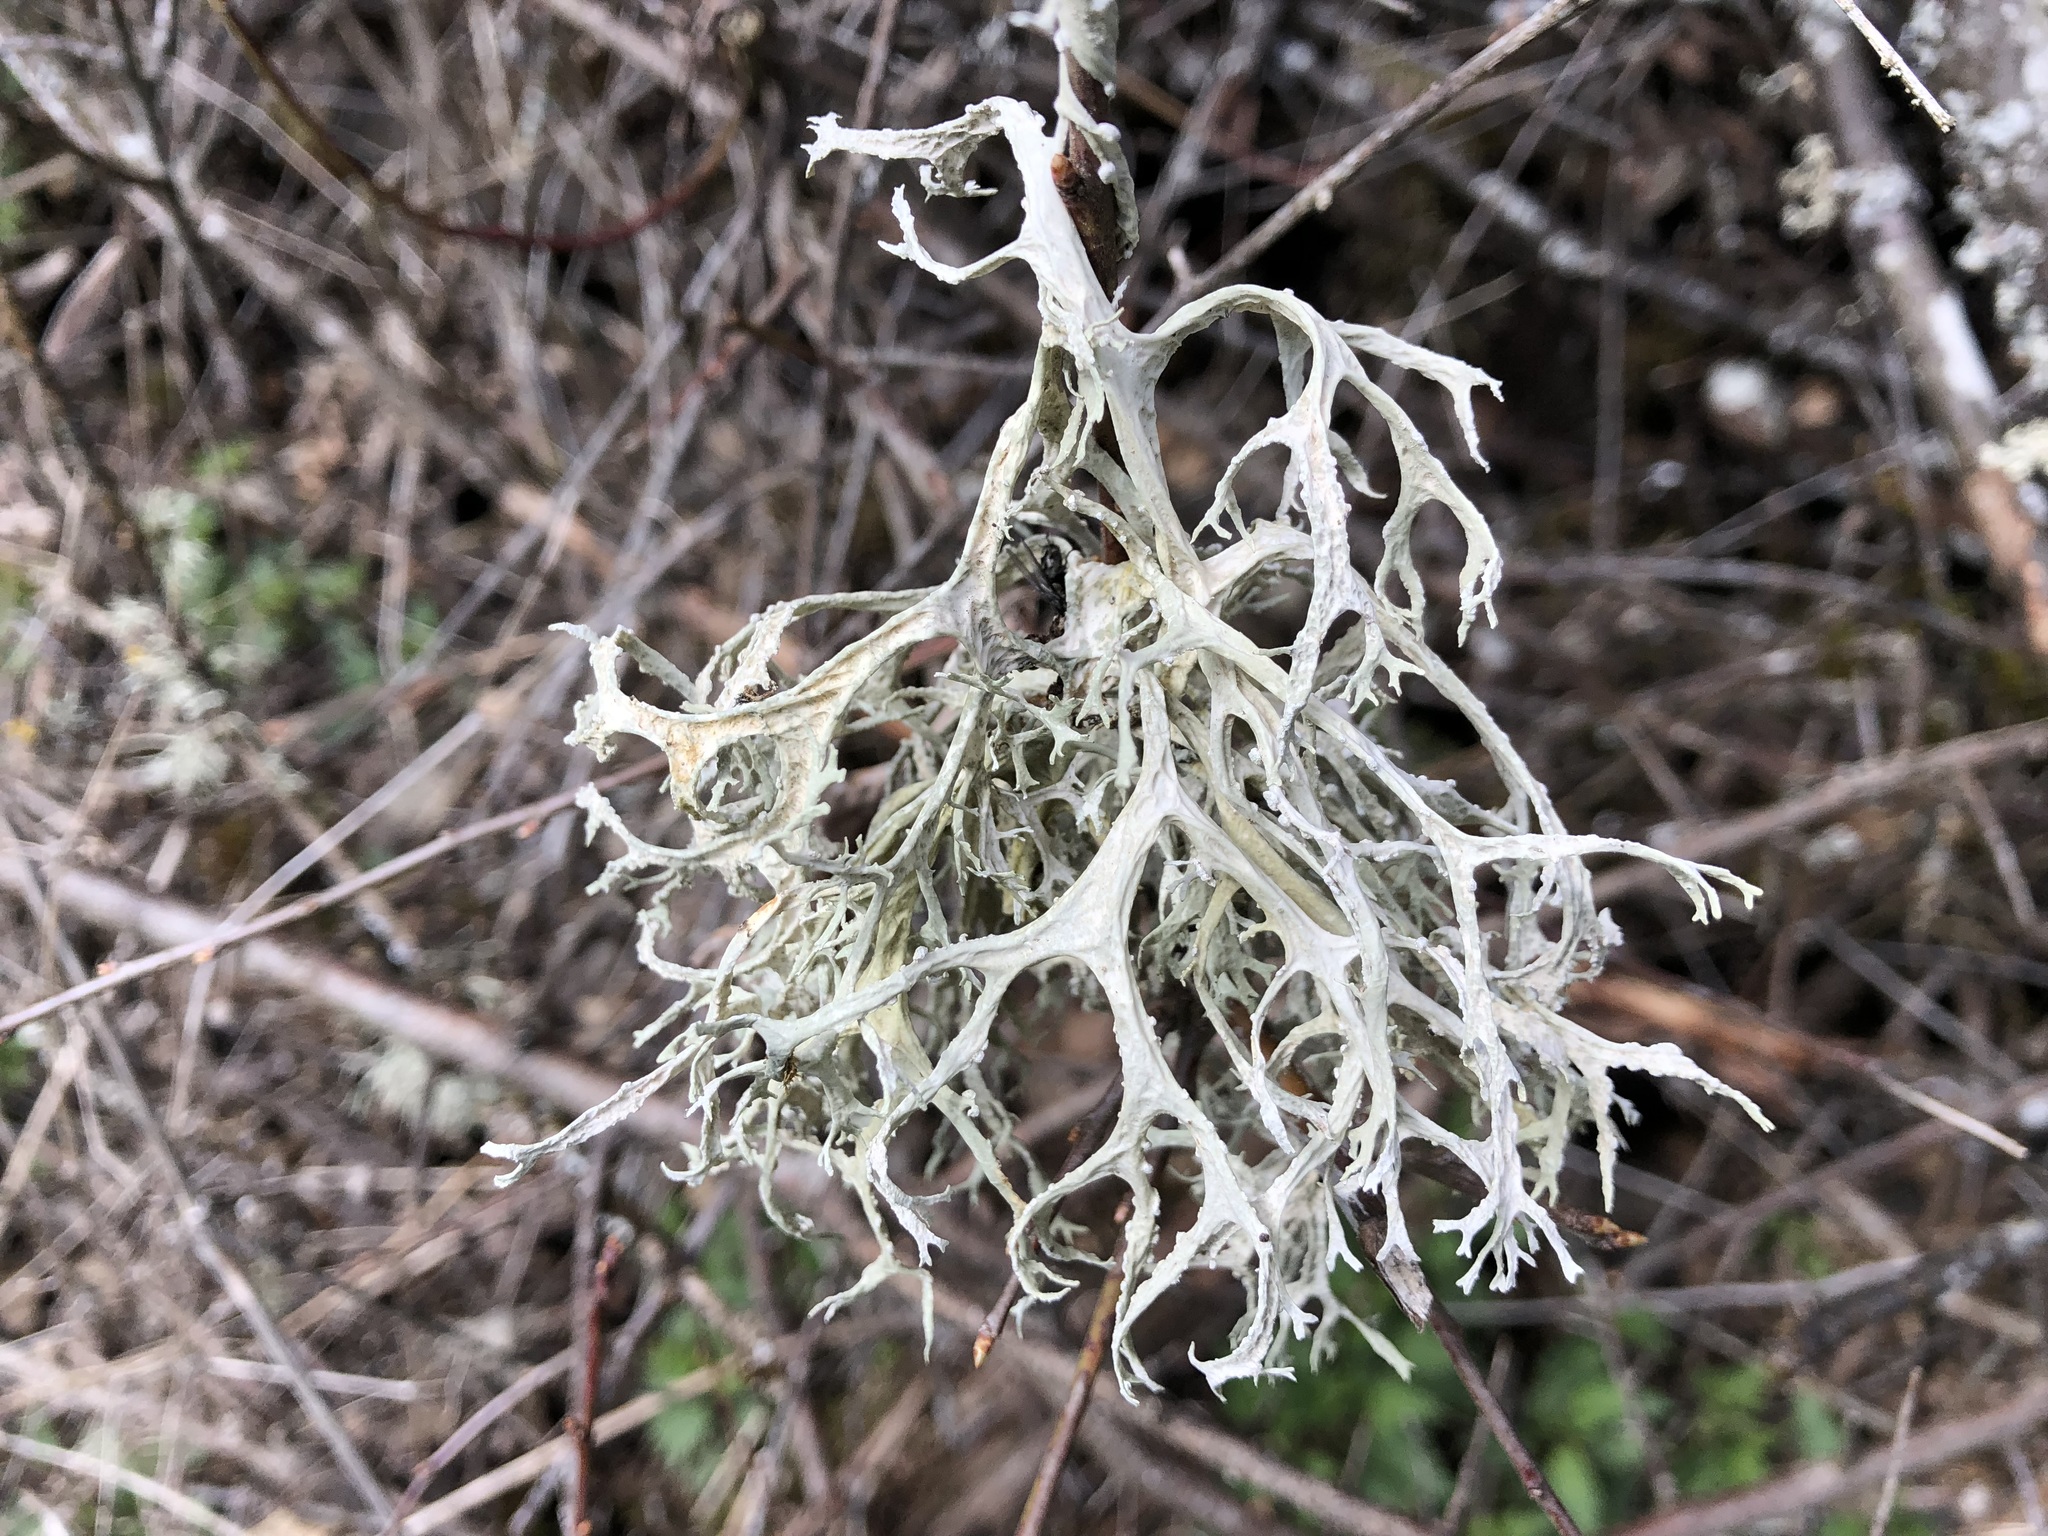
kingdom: Fungi
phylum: Ascomycota
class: Lecanoromycetes
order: Lecanorales
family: Parmeliaceae
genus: Evernia
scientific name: Evernia prunastri
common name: Oak moss
